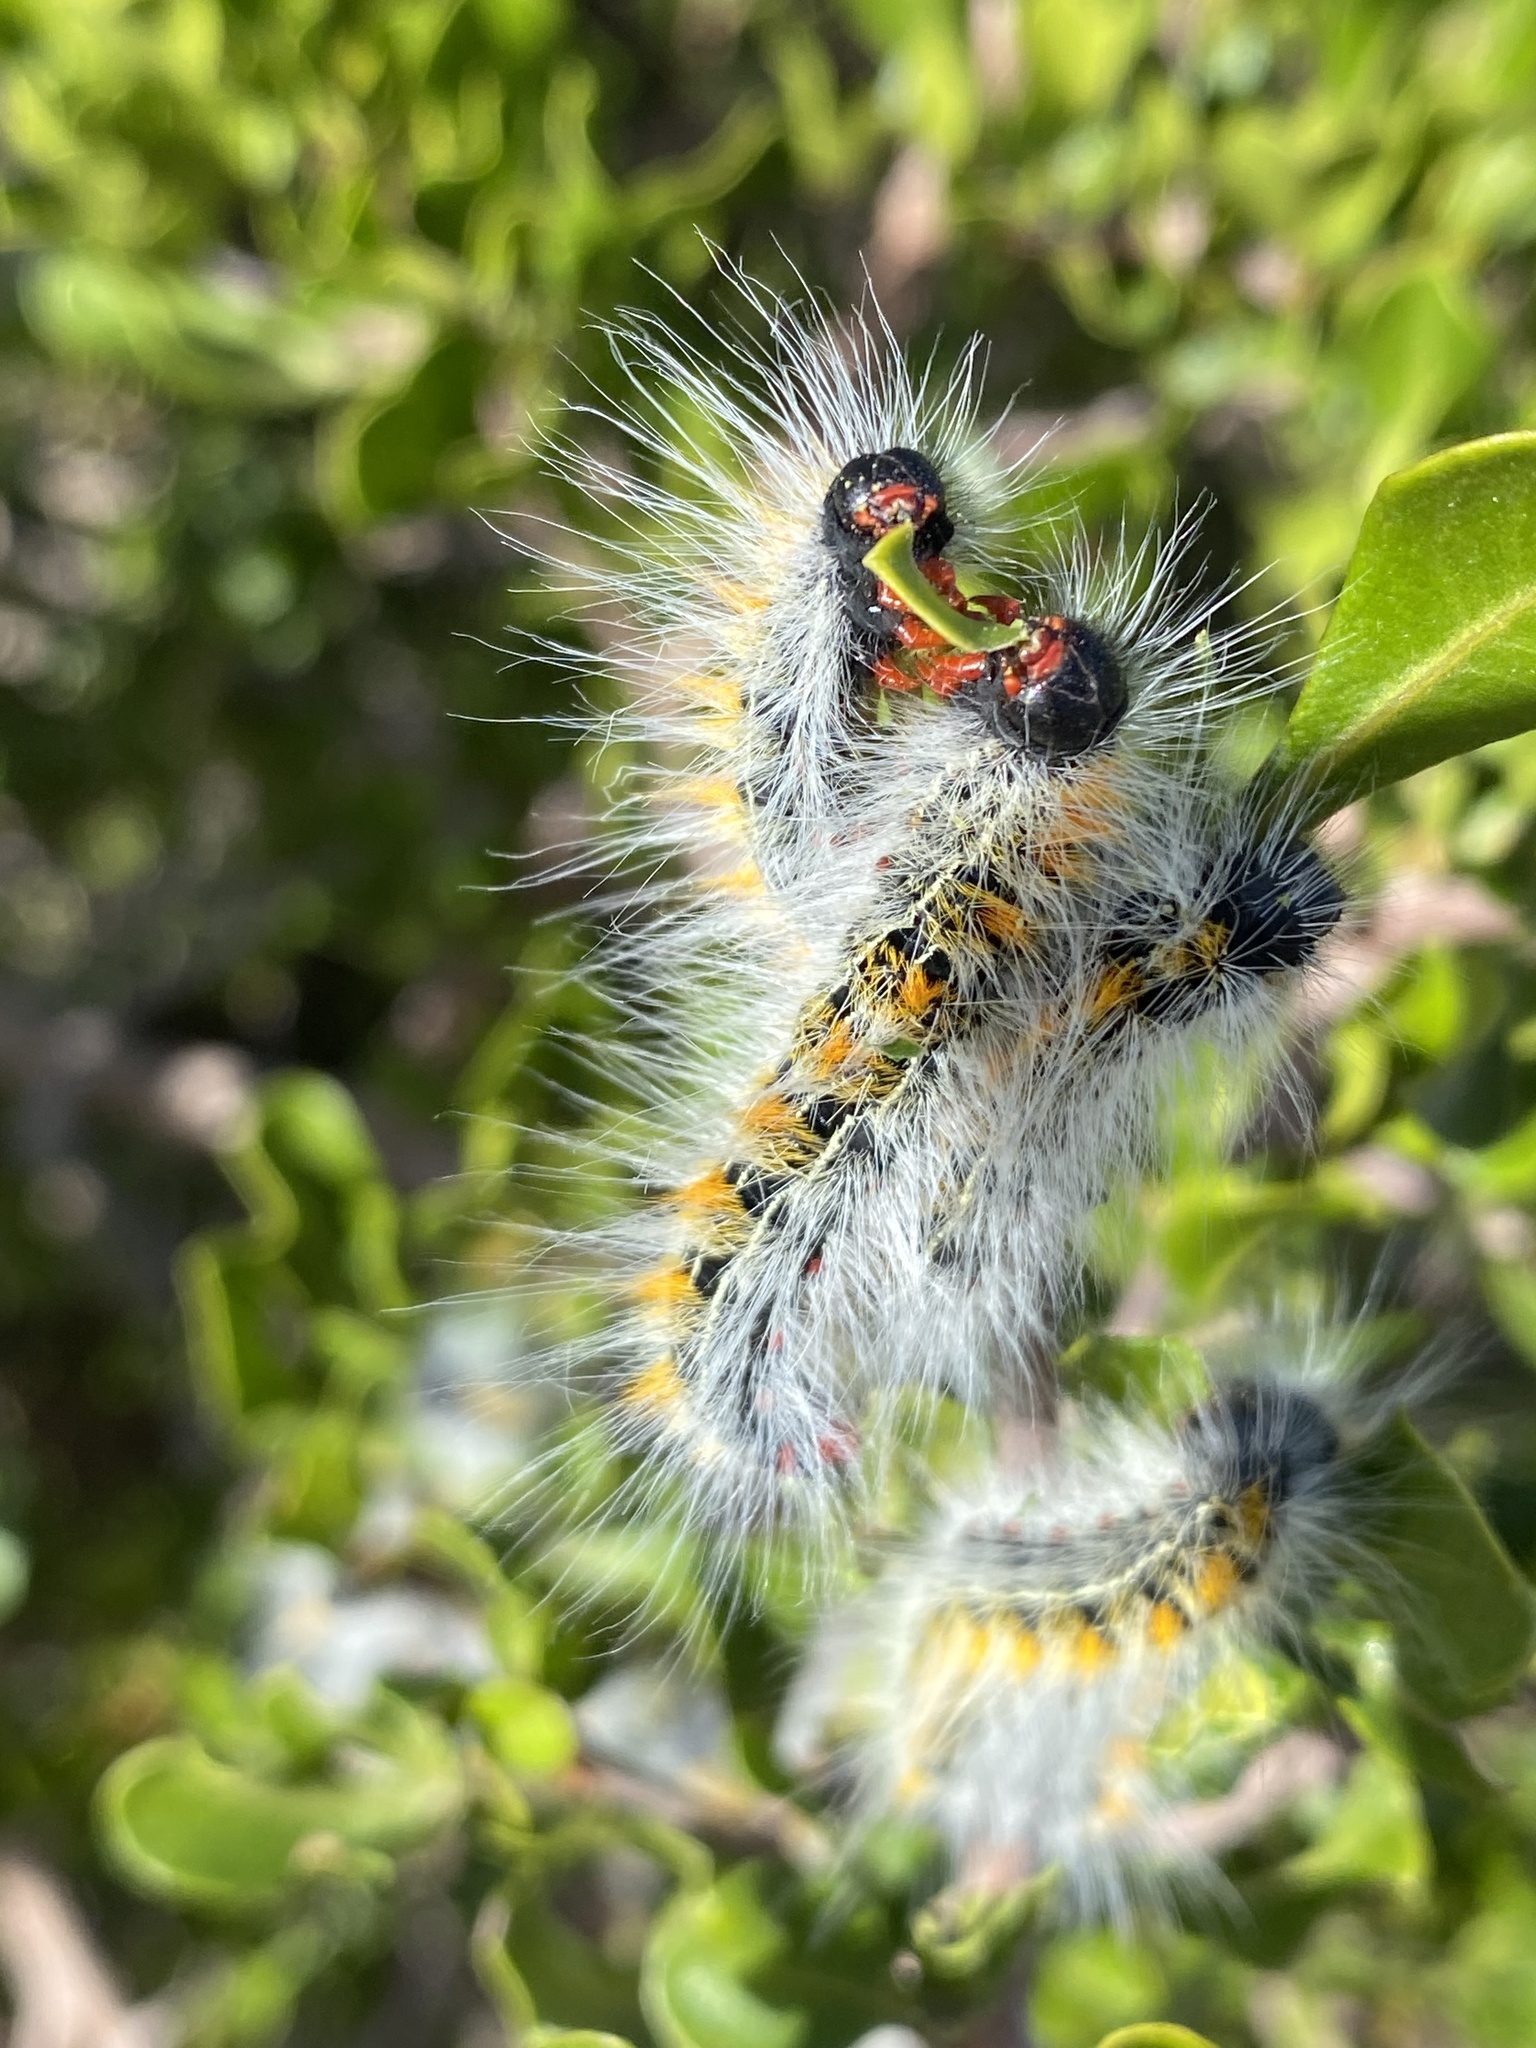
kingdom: Animalia
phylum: Arthropoda
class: Insecta
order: Lepidoptera
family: Lasiocampidae
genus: Bombycomorpha
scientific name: Bombycomorpha bifascia
